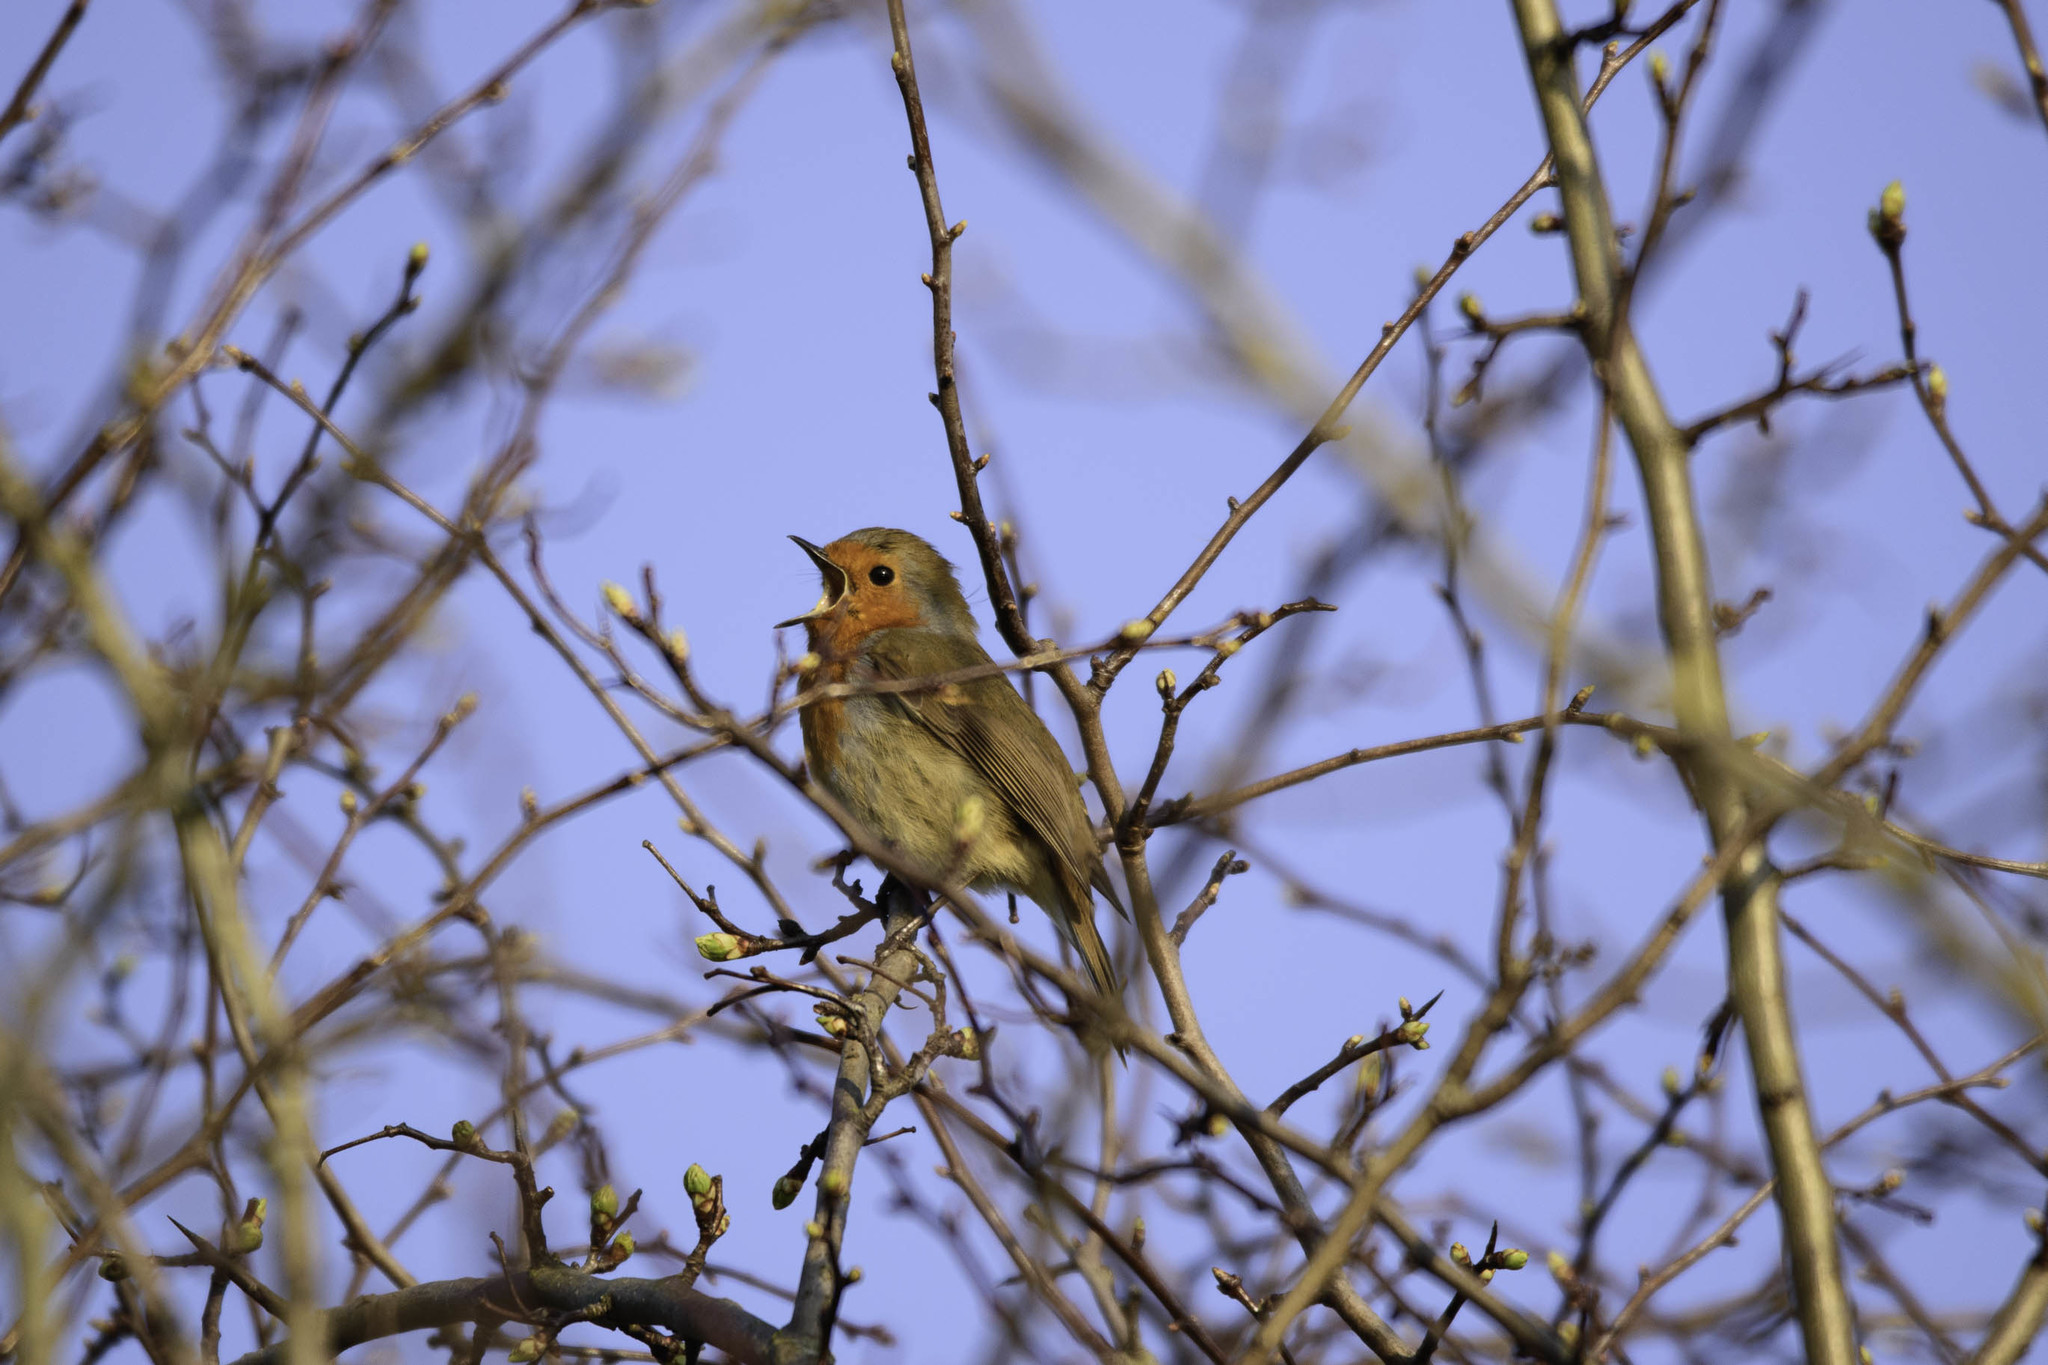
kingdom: Animalia
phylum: Chordata
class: Aves
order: Passeriformes
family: Muscicapidae
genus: Erithacus
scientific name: Erithacus rubecula
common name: European robin
